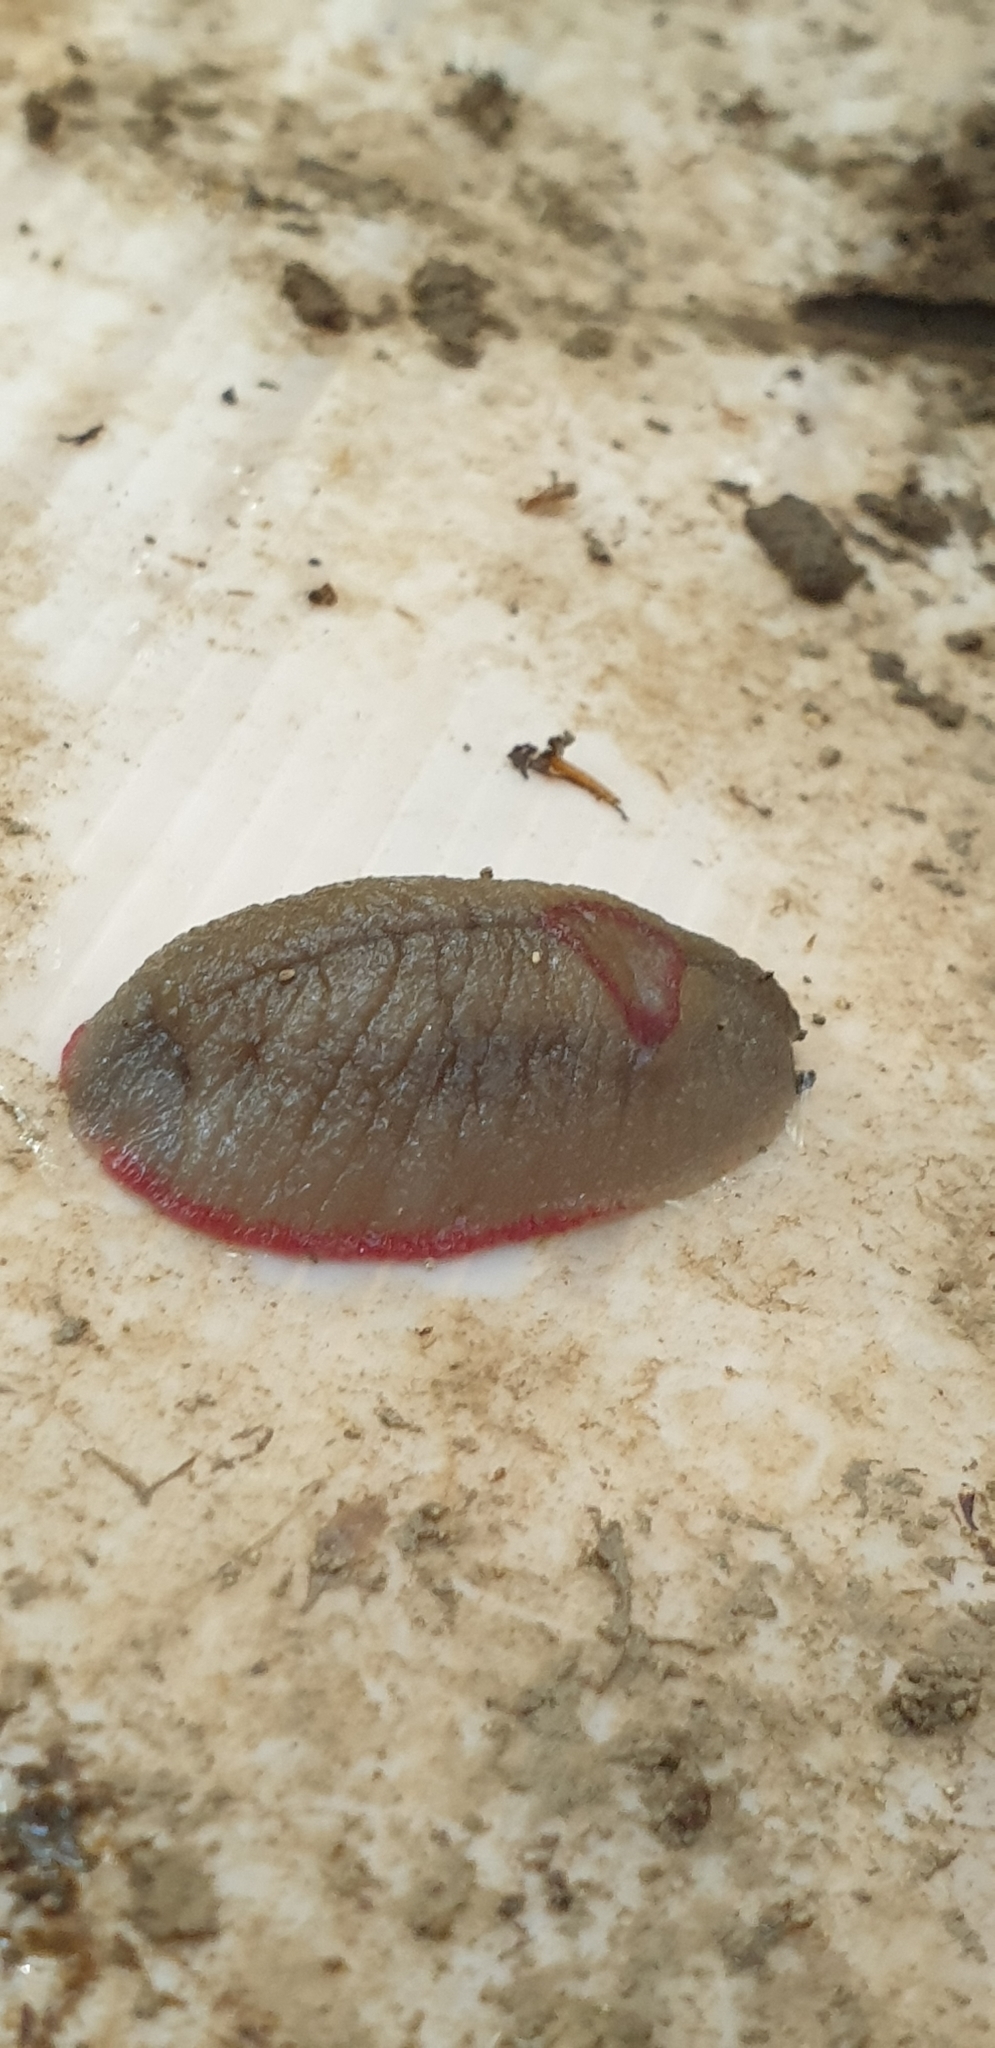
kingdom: Animalia
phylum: Mollusca
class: Gastropoda
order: Stylommatophora
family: Athoracophoridae
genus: Triboniophorus
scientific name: Triboniophorus graeffei
